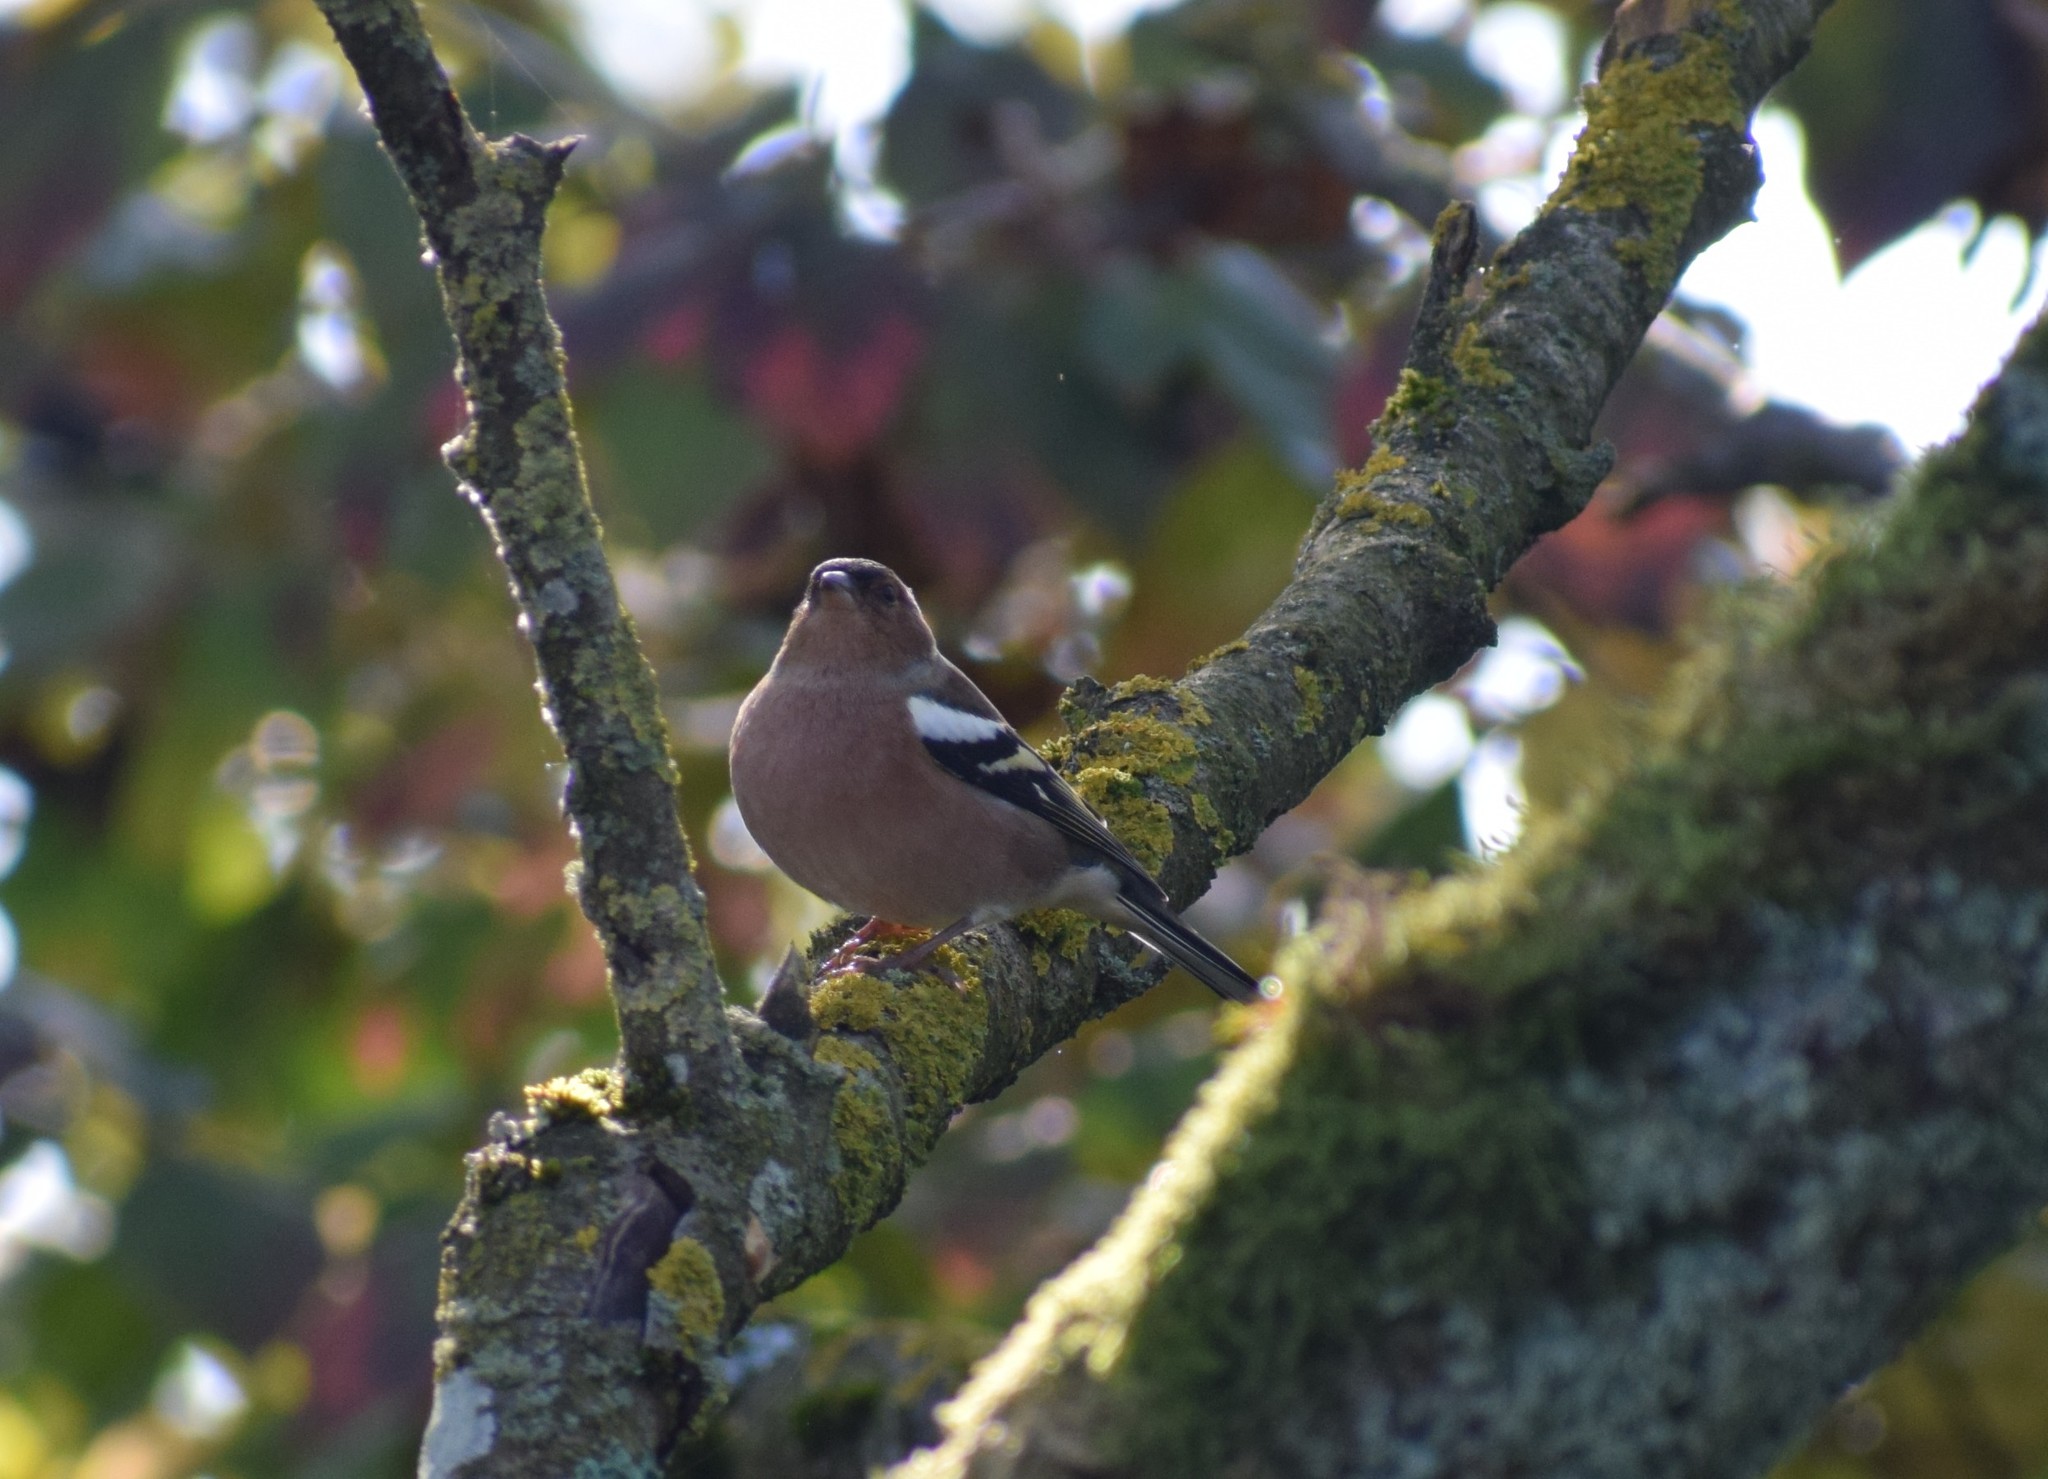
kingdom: Animalia
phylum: Chordata
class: Aves
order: Passeriformes
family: Fringillidae
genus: Fringilla
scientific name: Fringilla coelebs
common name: Common chaffinch
